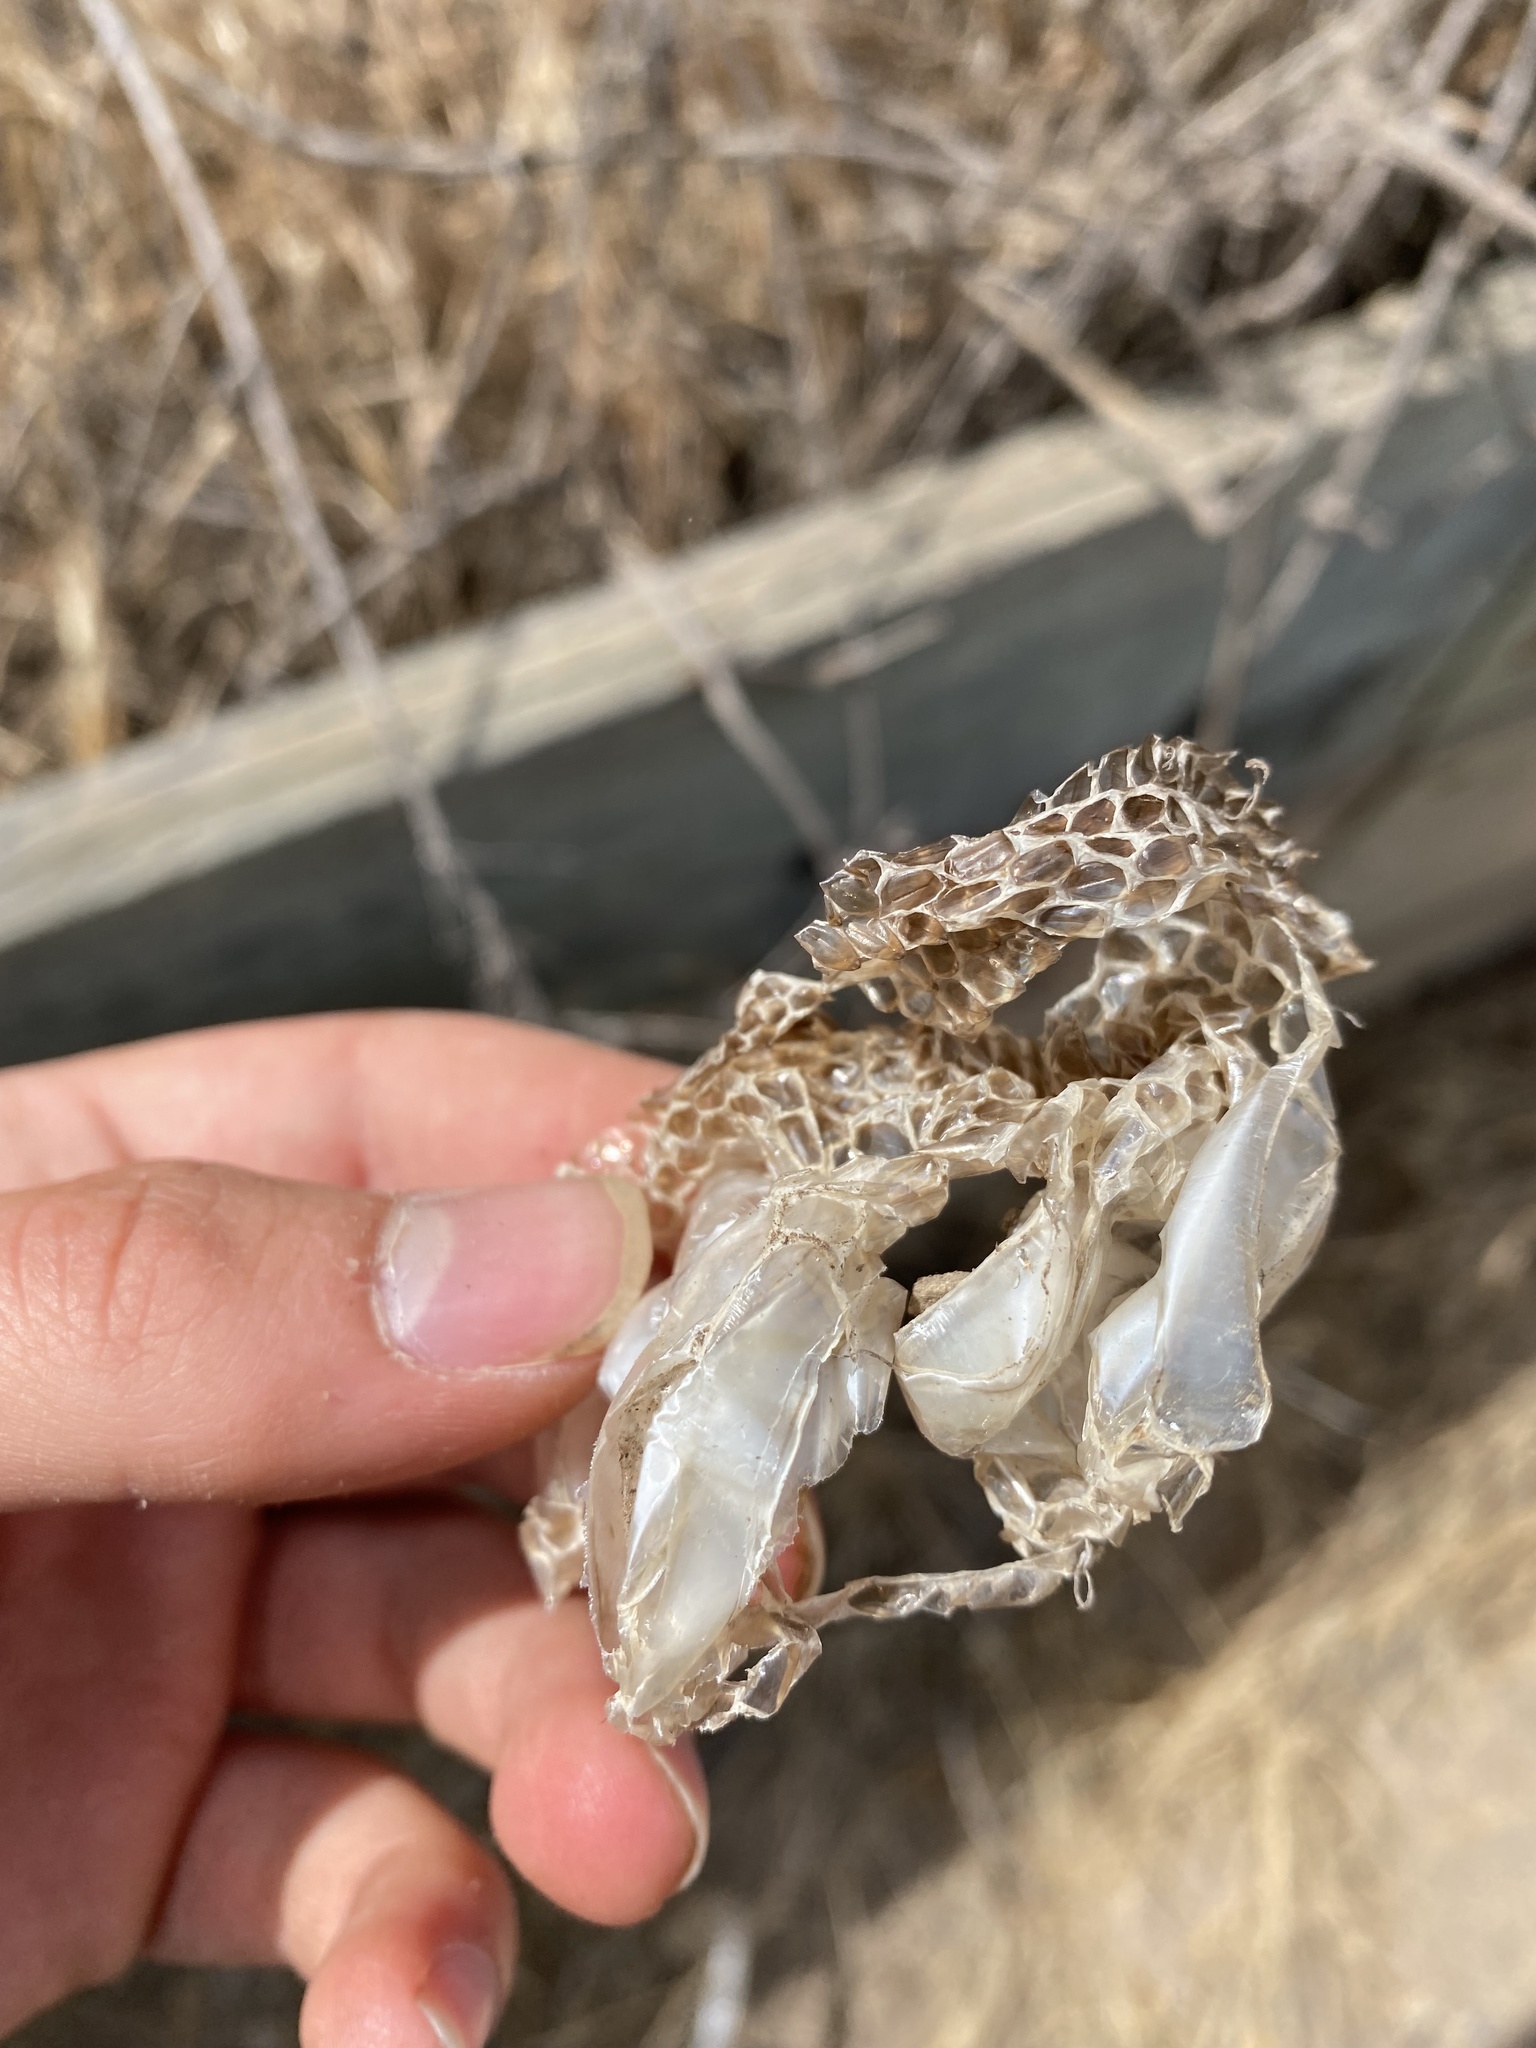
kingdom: Animalia
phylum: Chordata
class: Squamata
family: Viperidae
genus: Crotalus
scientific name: Crotalus oreganus
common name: Abyssus
